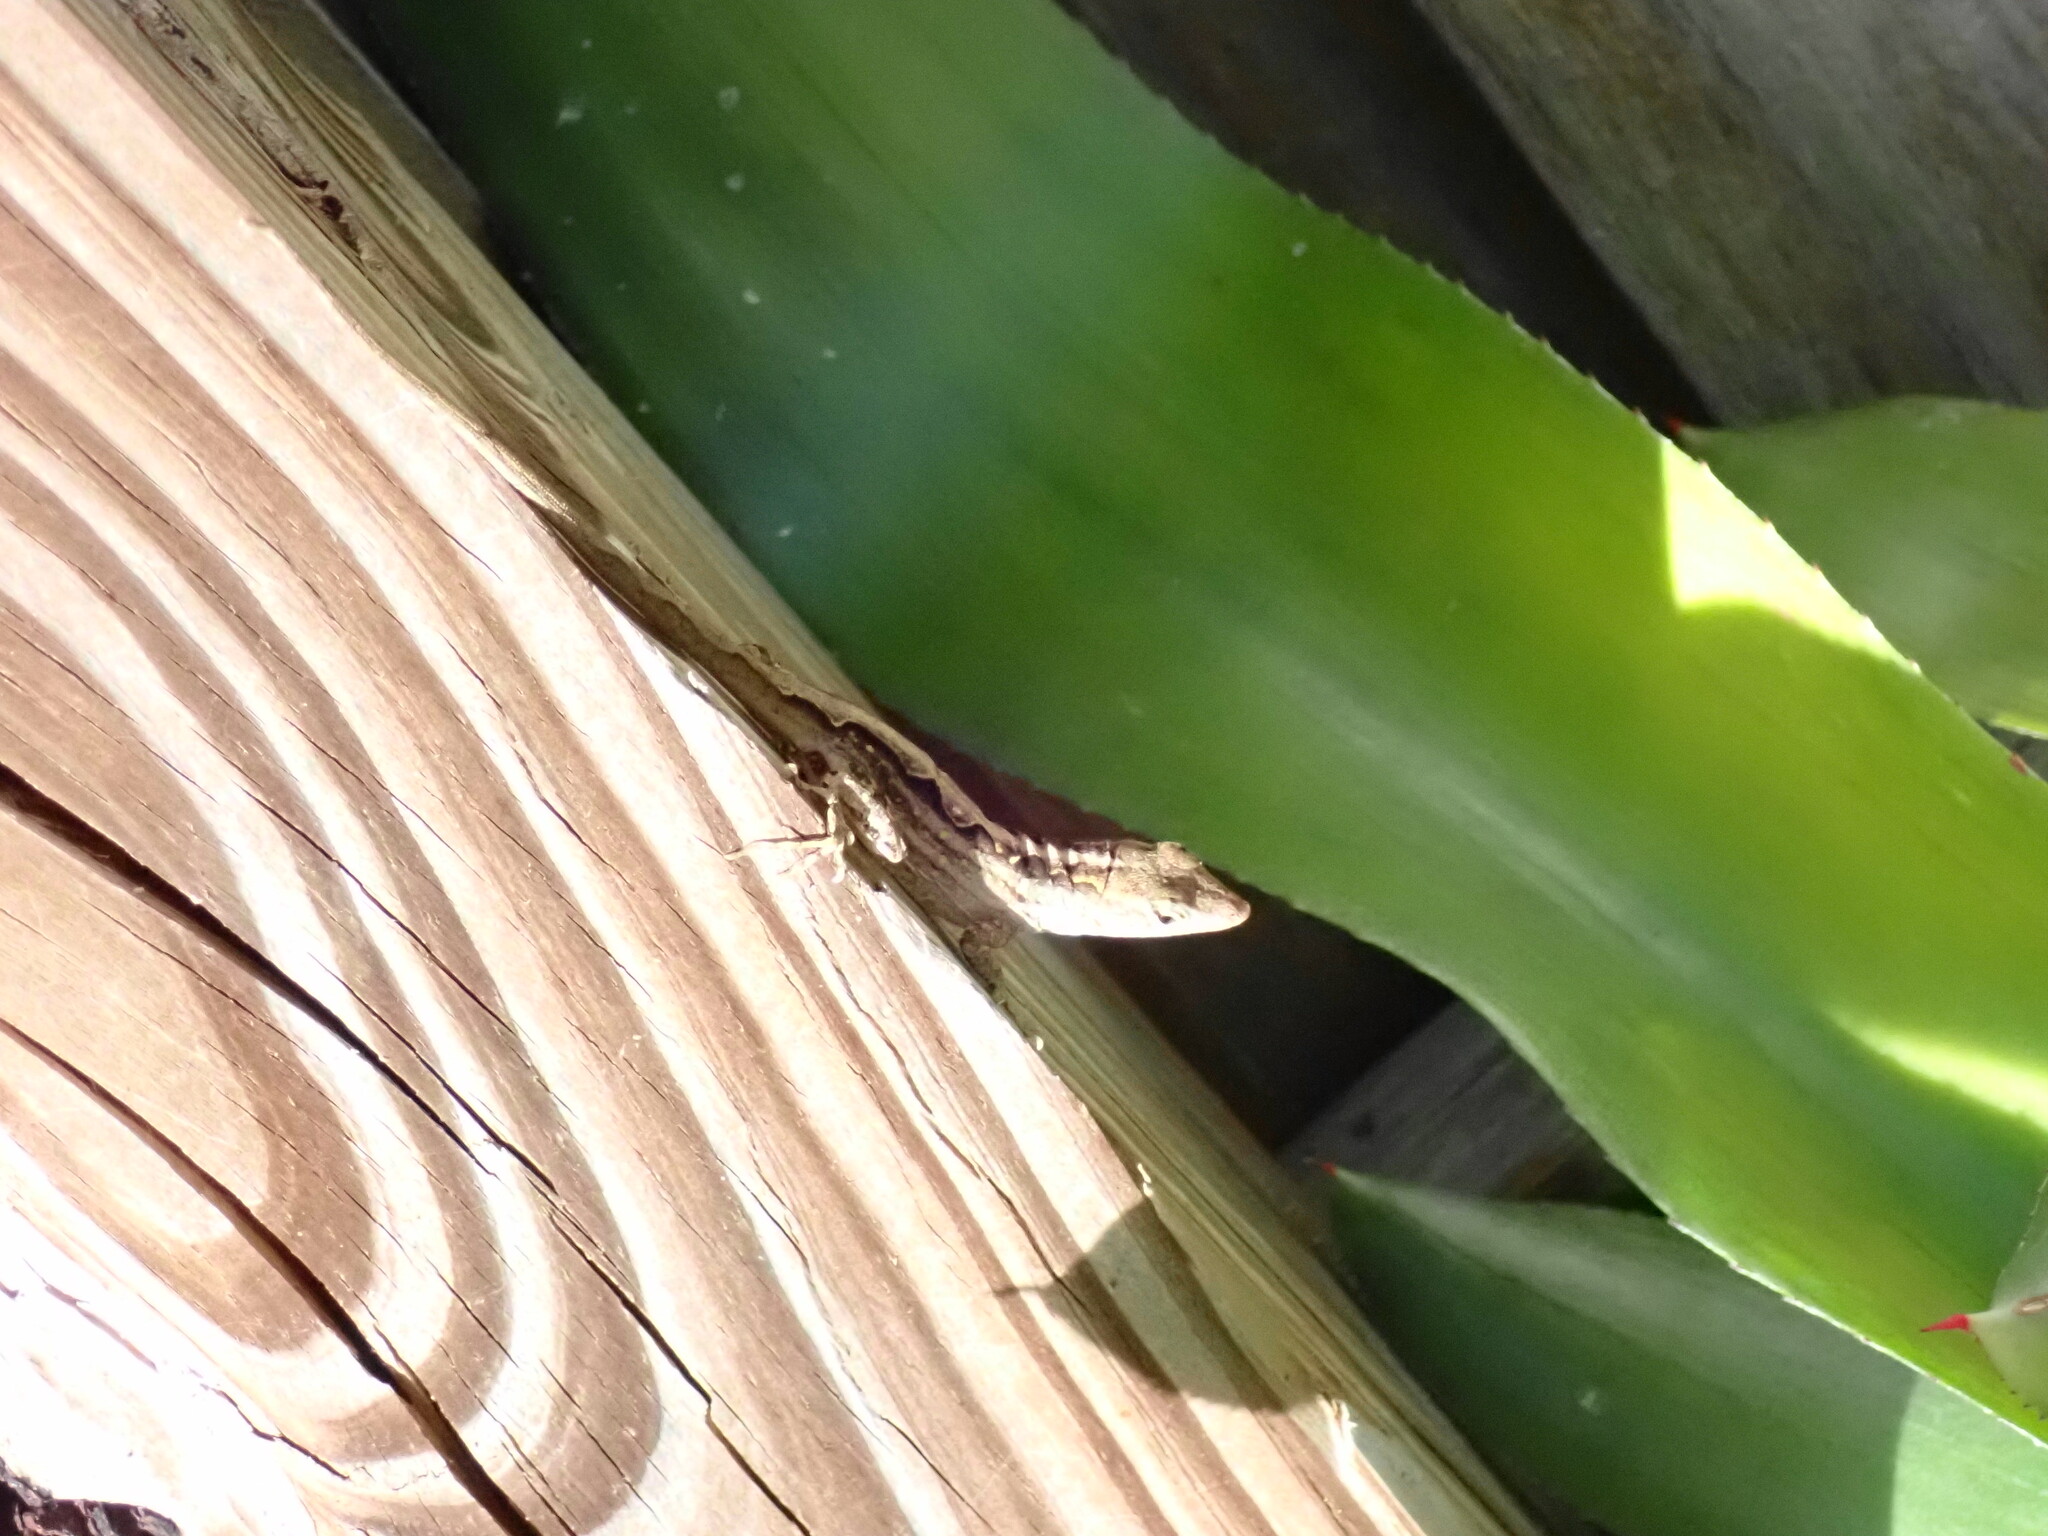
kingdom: Animalia
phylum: Chordata
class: Squamata
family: Dactyloidae
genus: Anolis
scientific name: Anolis sagrei
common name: Brown anole
